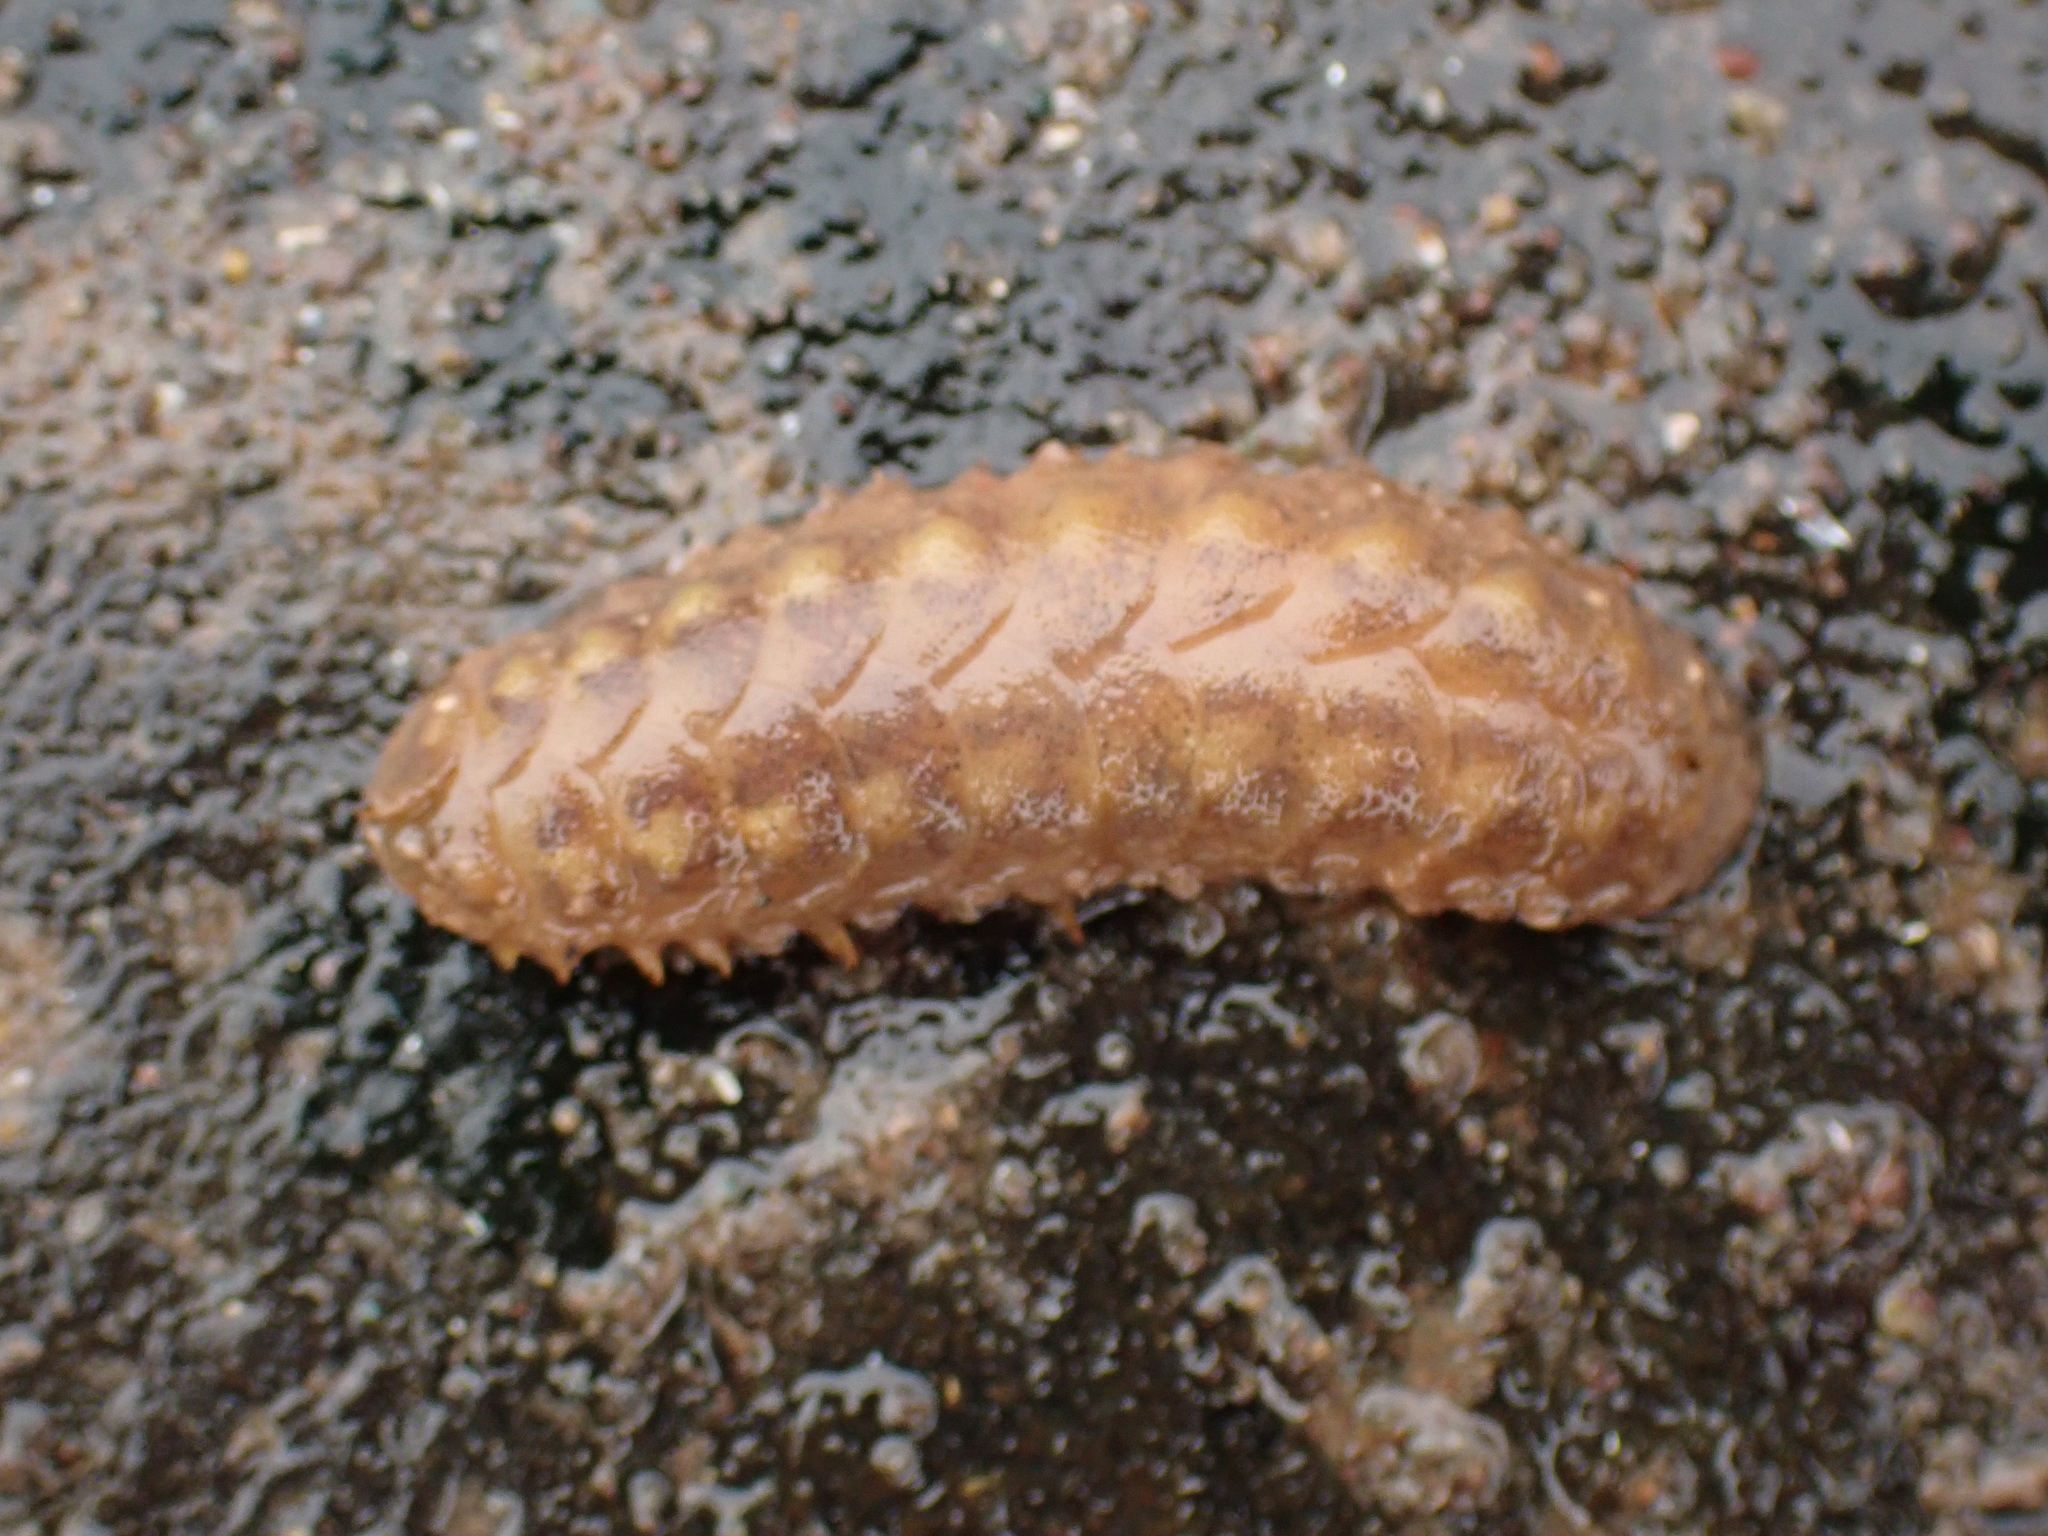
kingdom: Animalia
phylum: Annelida
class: Polychaeta
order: Phyllodocida
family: Polynoidae
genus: Lepidonotus
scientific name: Lepidonotus squamatus
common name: Twelve-scaled worm
